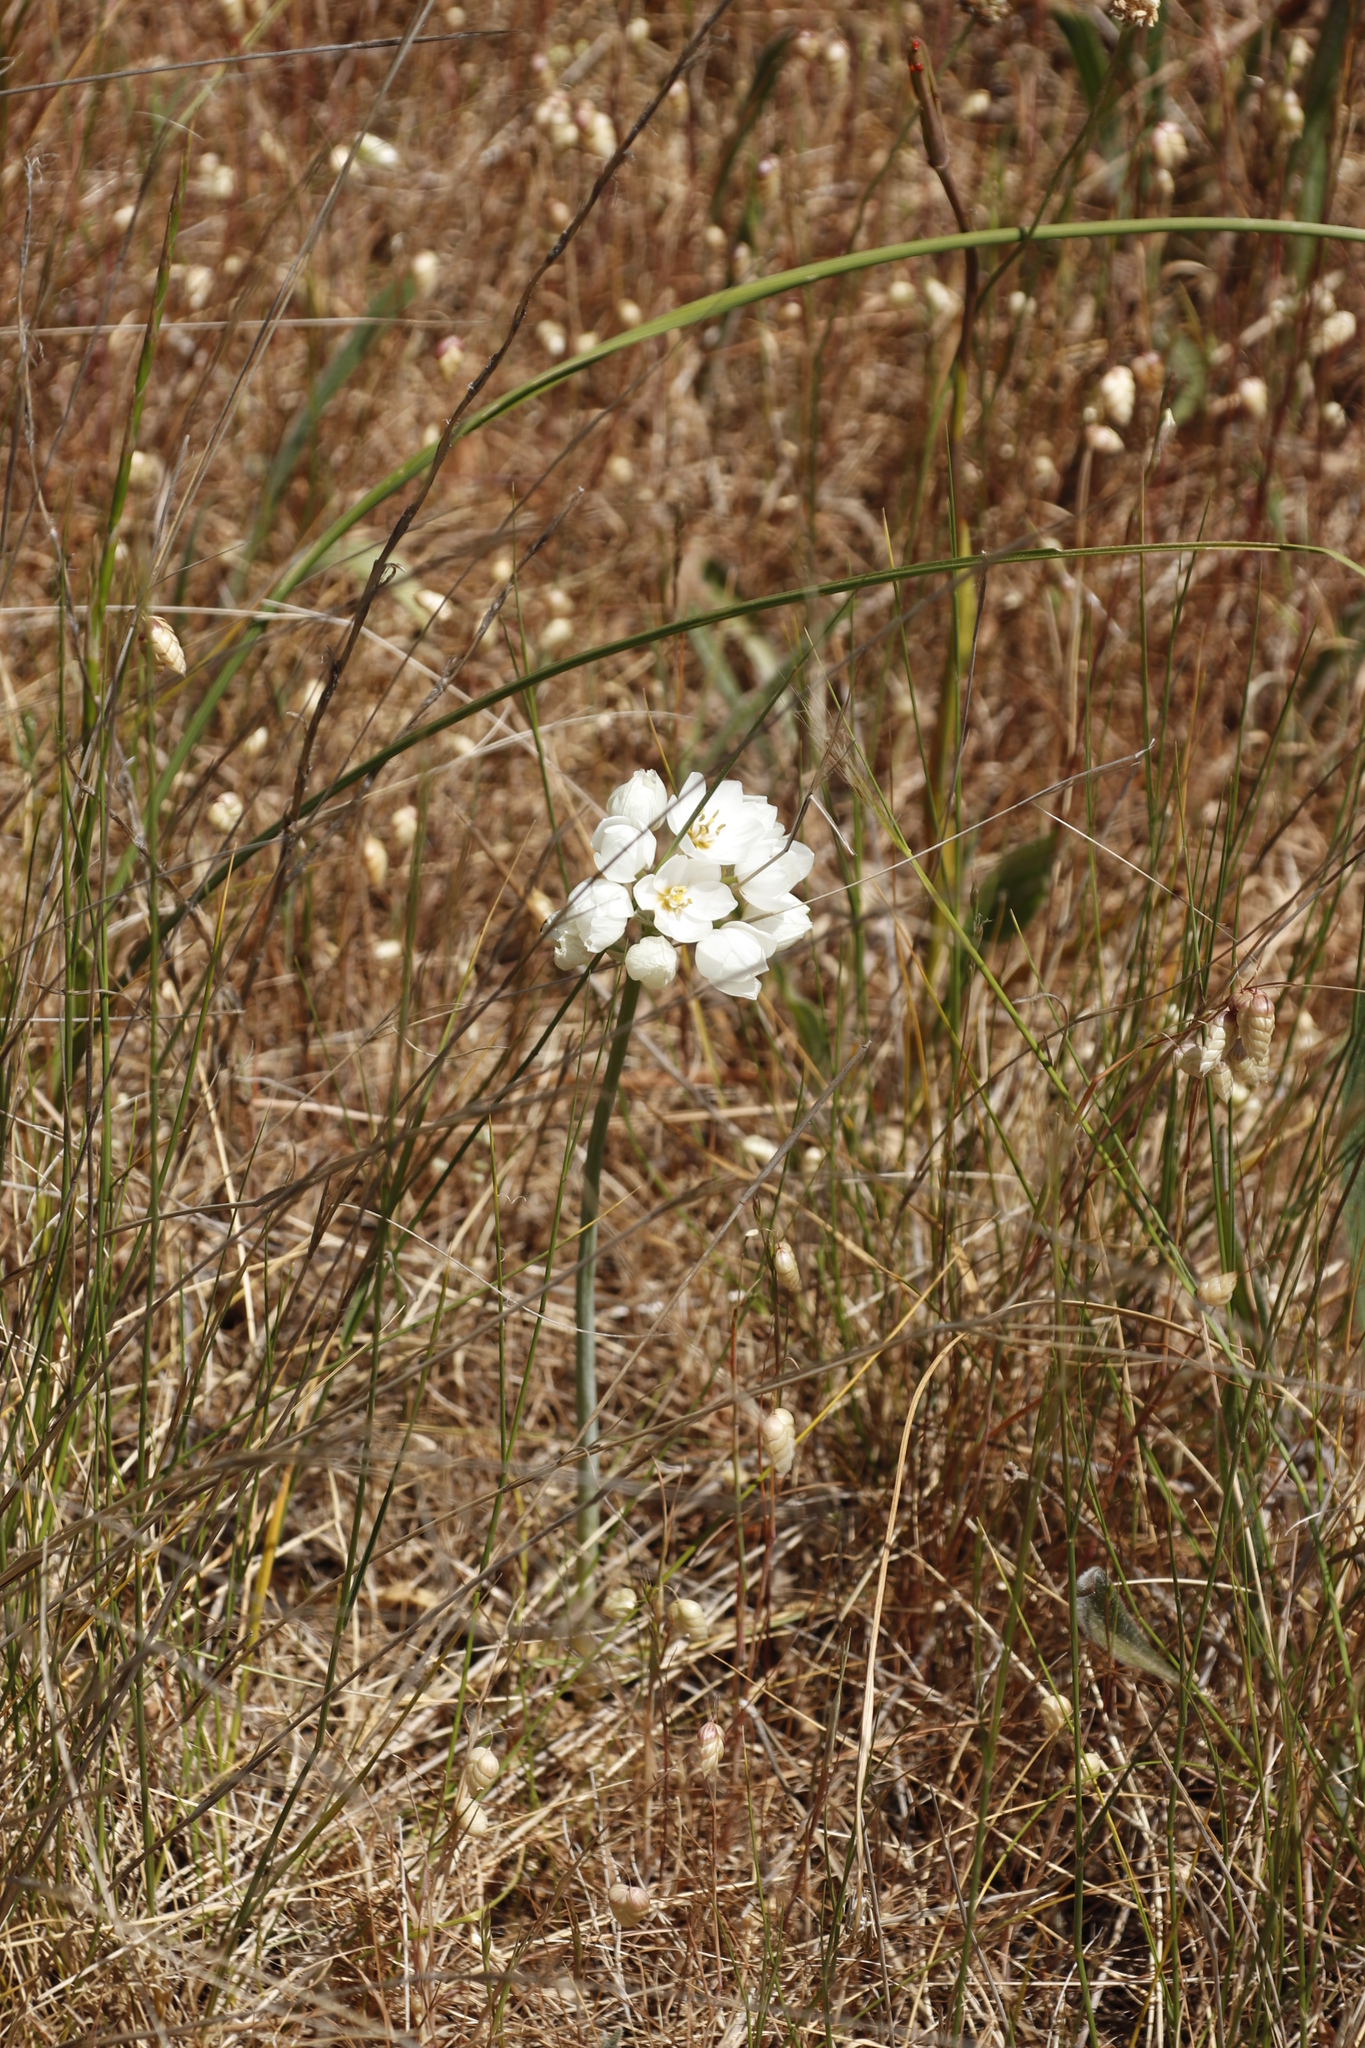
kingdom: Plantae
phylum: Tracheophyta
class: Liliopsida
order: Asparagales
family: Asparagaceae
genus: Ornithogalum
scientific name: Ornithogalum thyrsoides
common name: Chincherinchee
